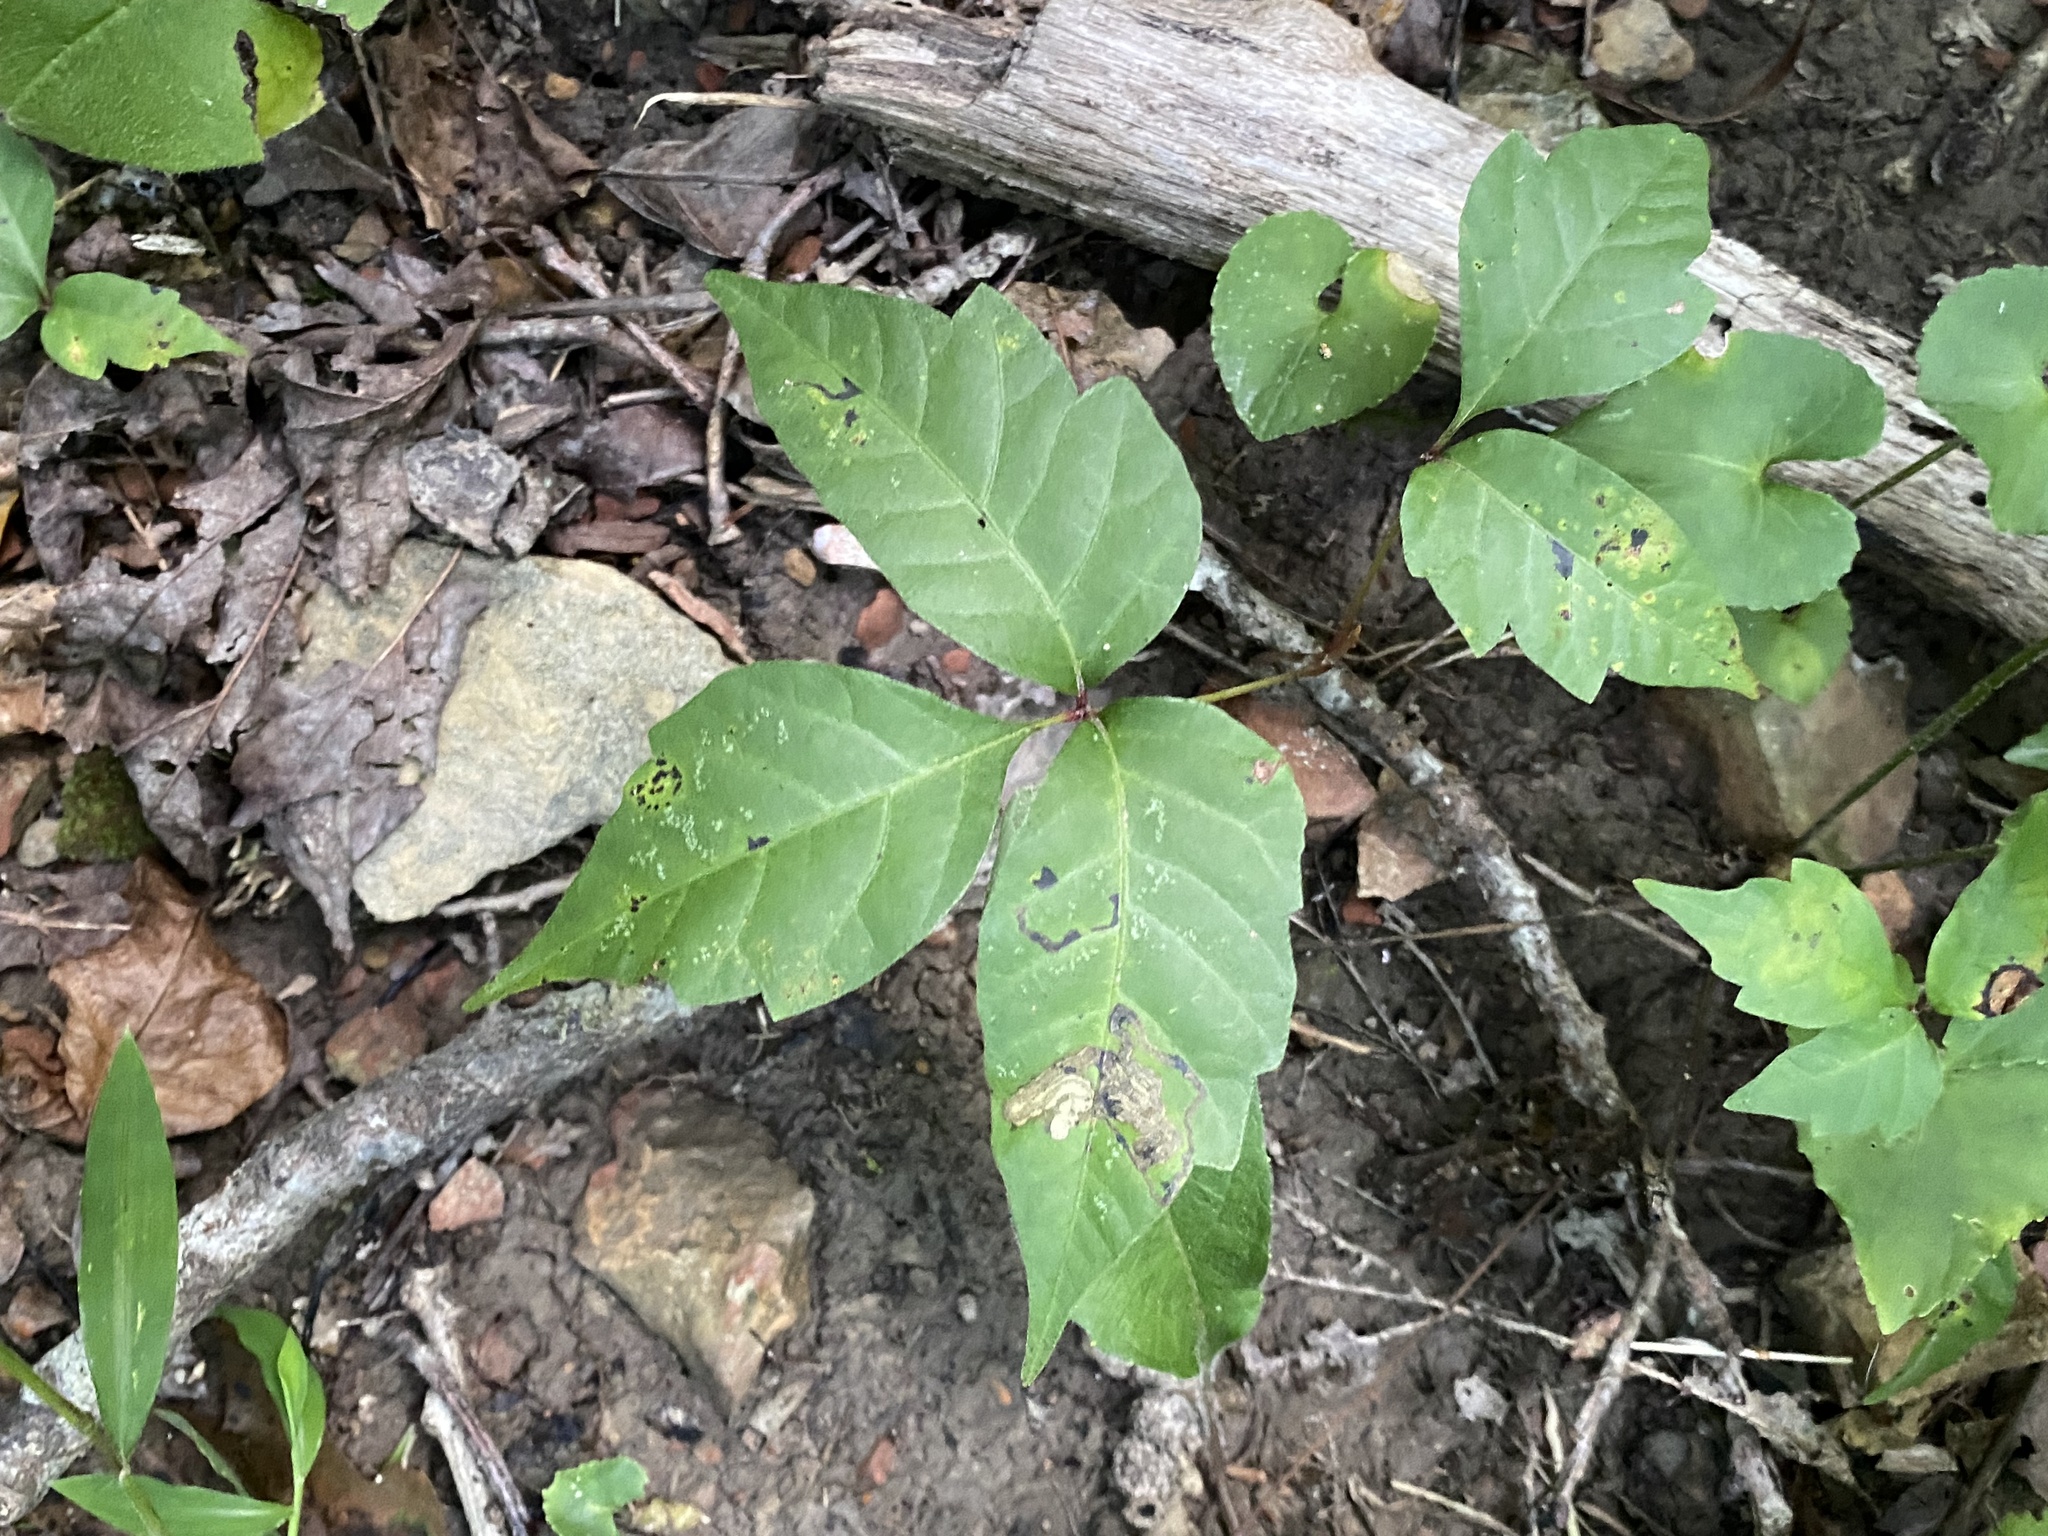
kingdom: Plantae
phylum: Tracheophyta
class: Magnoliopsida
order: Sapindales
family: Anacardiaceae
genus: Toxicodendron
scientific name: Toxicodendron radicans
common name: Poison ivy
